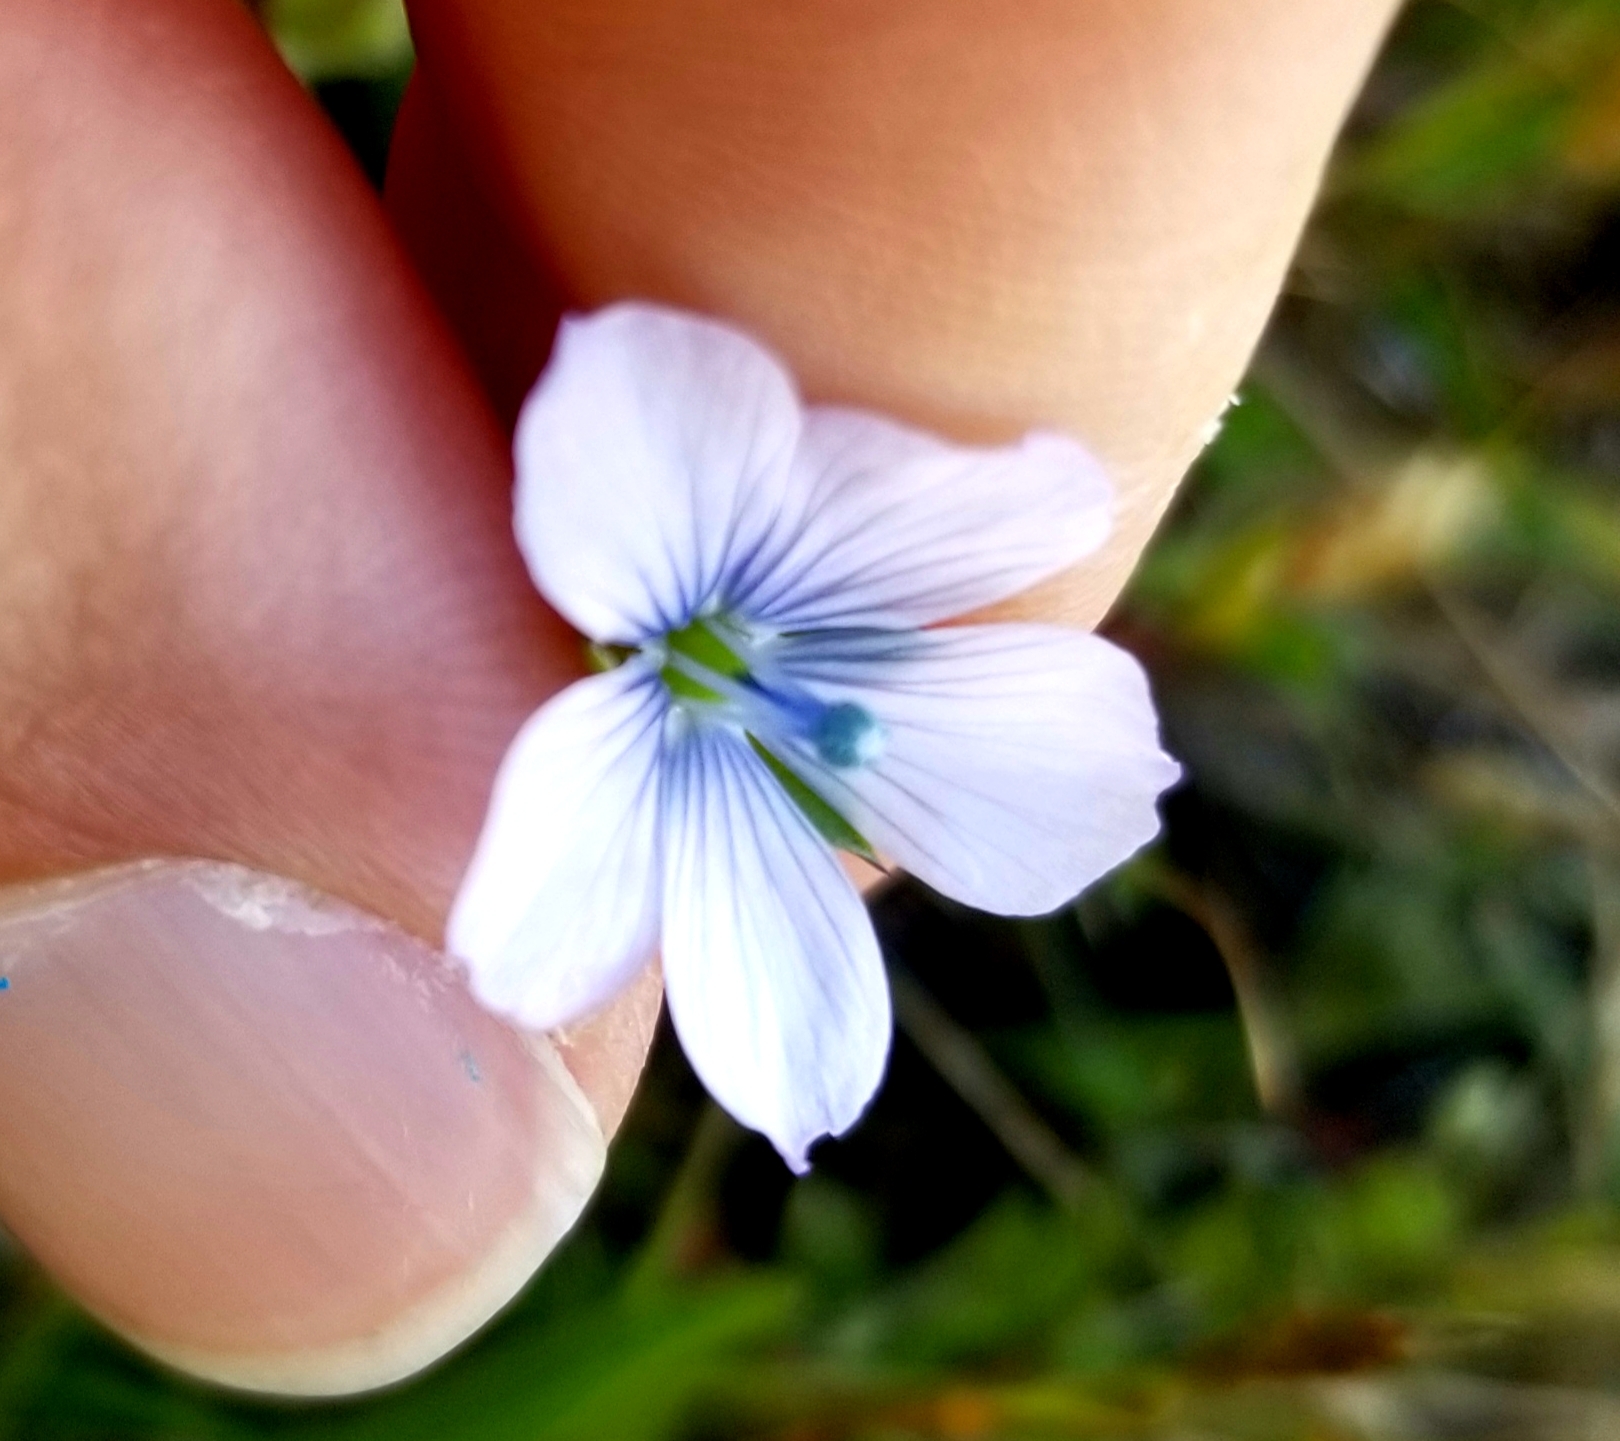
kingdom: Plantae
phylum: Tracheophyta
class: Magnoliopsida
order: Malpighiales
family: Linaceae
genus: Linum
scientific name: Linum bienne
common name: Pale flax
